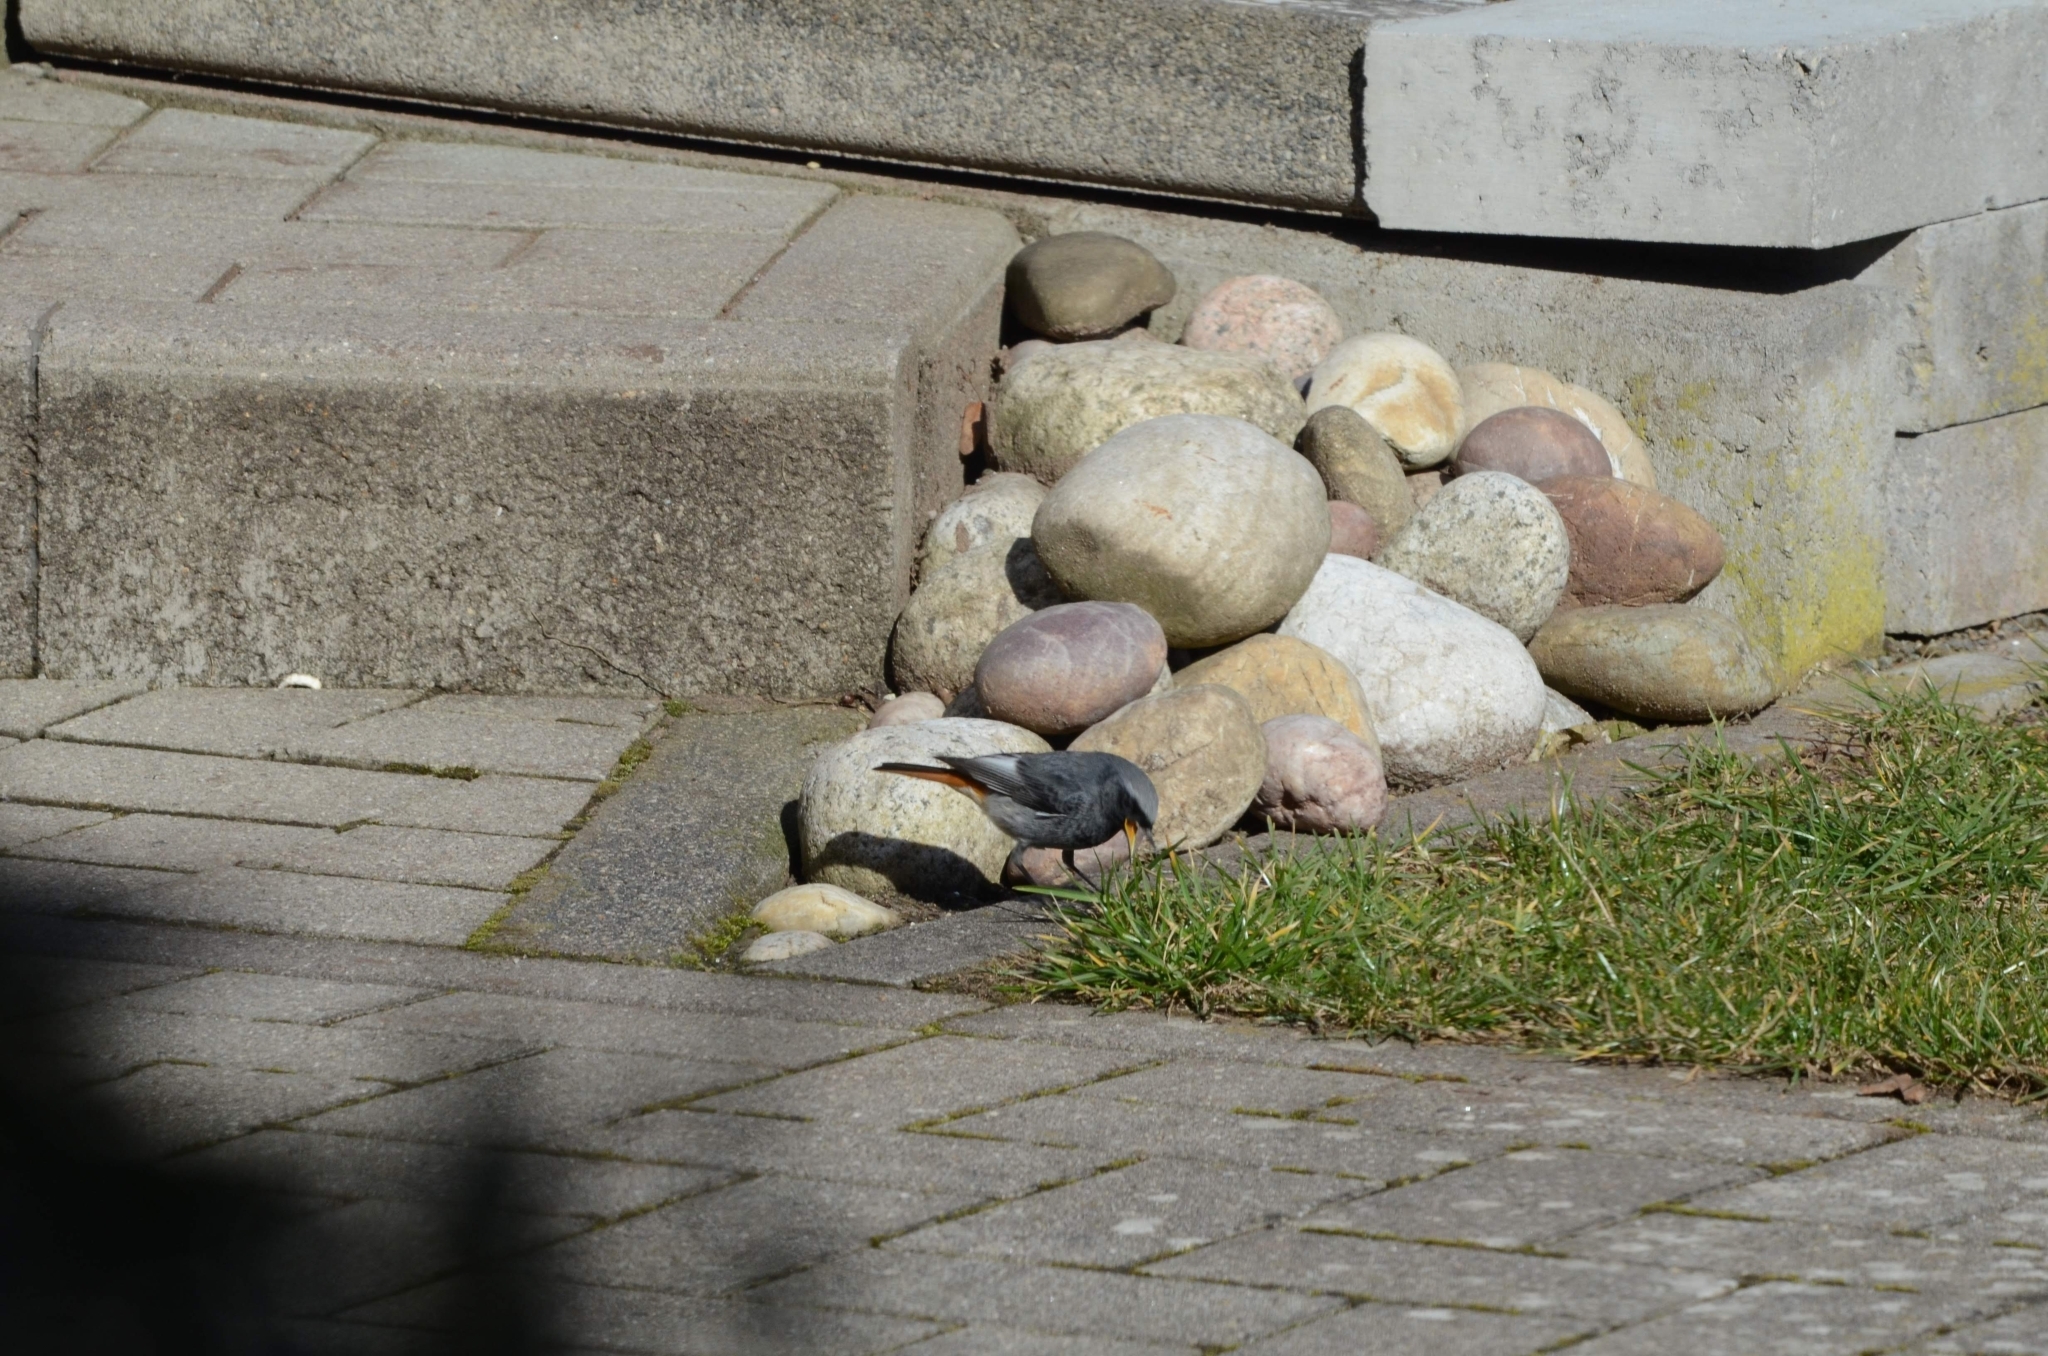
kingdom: Animalia
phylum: Chordata
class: Aves
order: Passeriformes
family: Muscicapidae
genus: Phoenicurus
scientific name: Phoenicurus ochruros
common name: Black redstart
